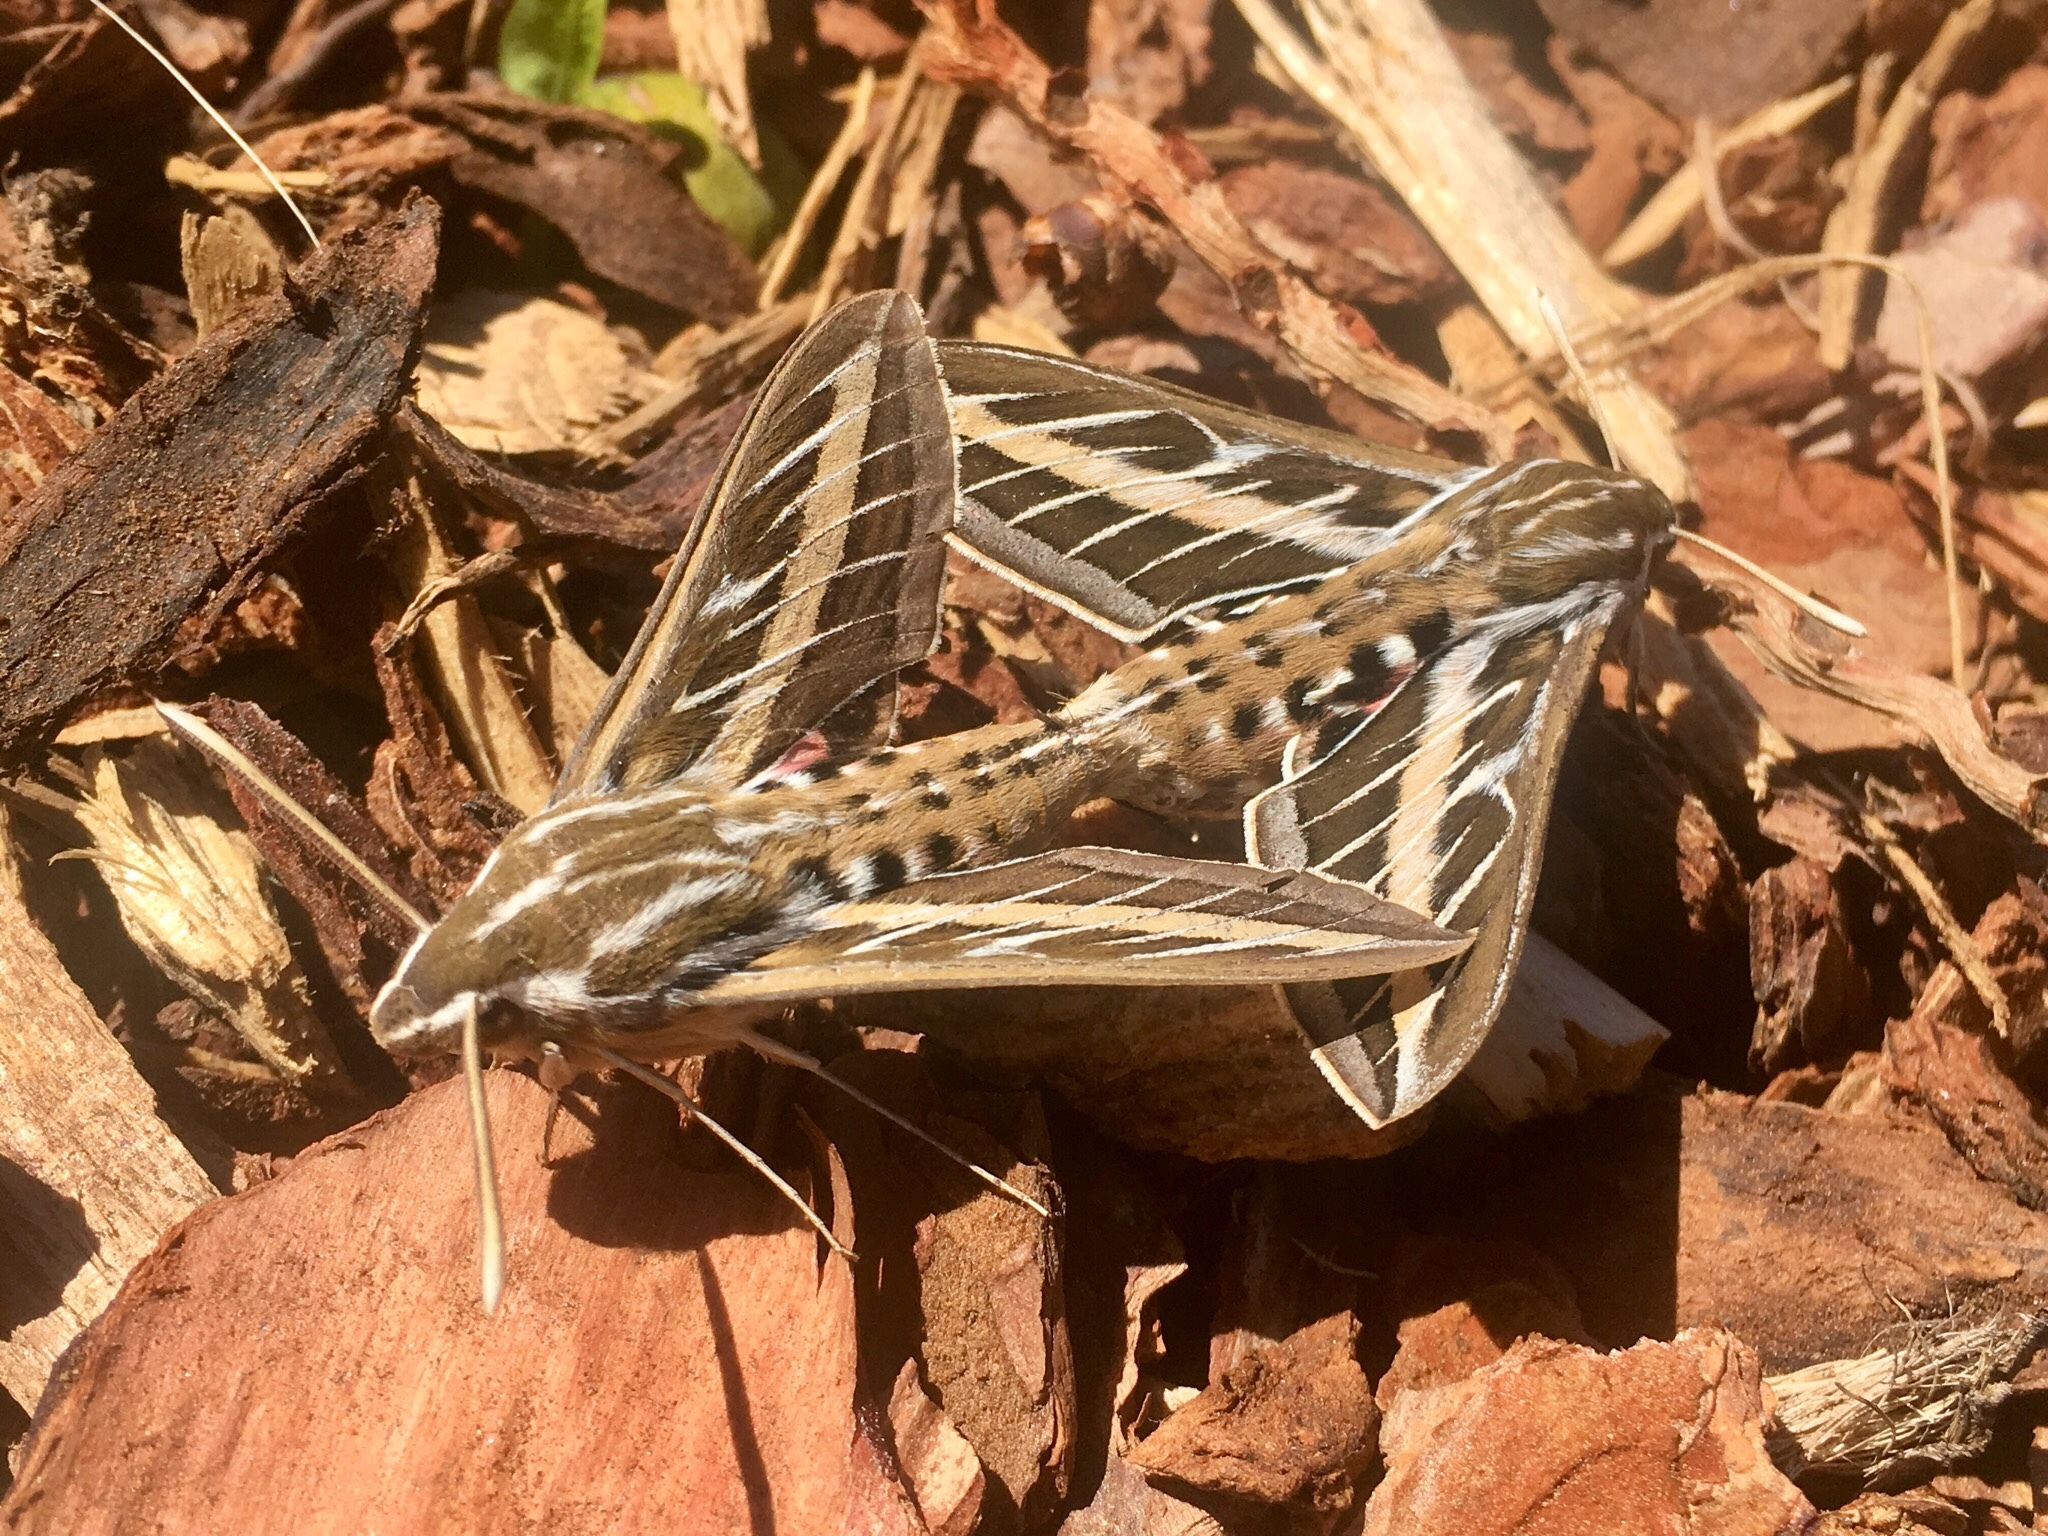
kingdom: Animalia
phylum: Arthropoda
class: Insecta
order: Lepidoptera
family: Sphingidae
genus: Hyles
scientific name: Hyles lineata
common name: White-lined sphinx
